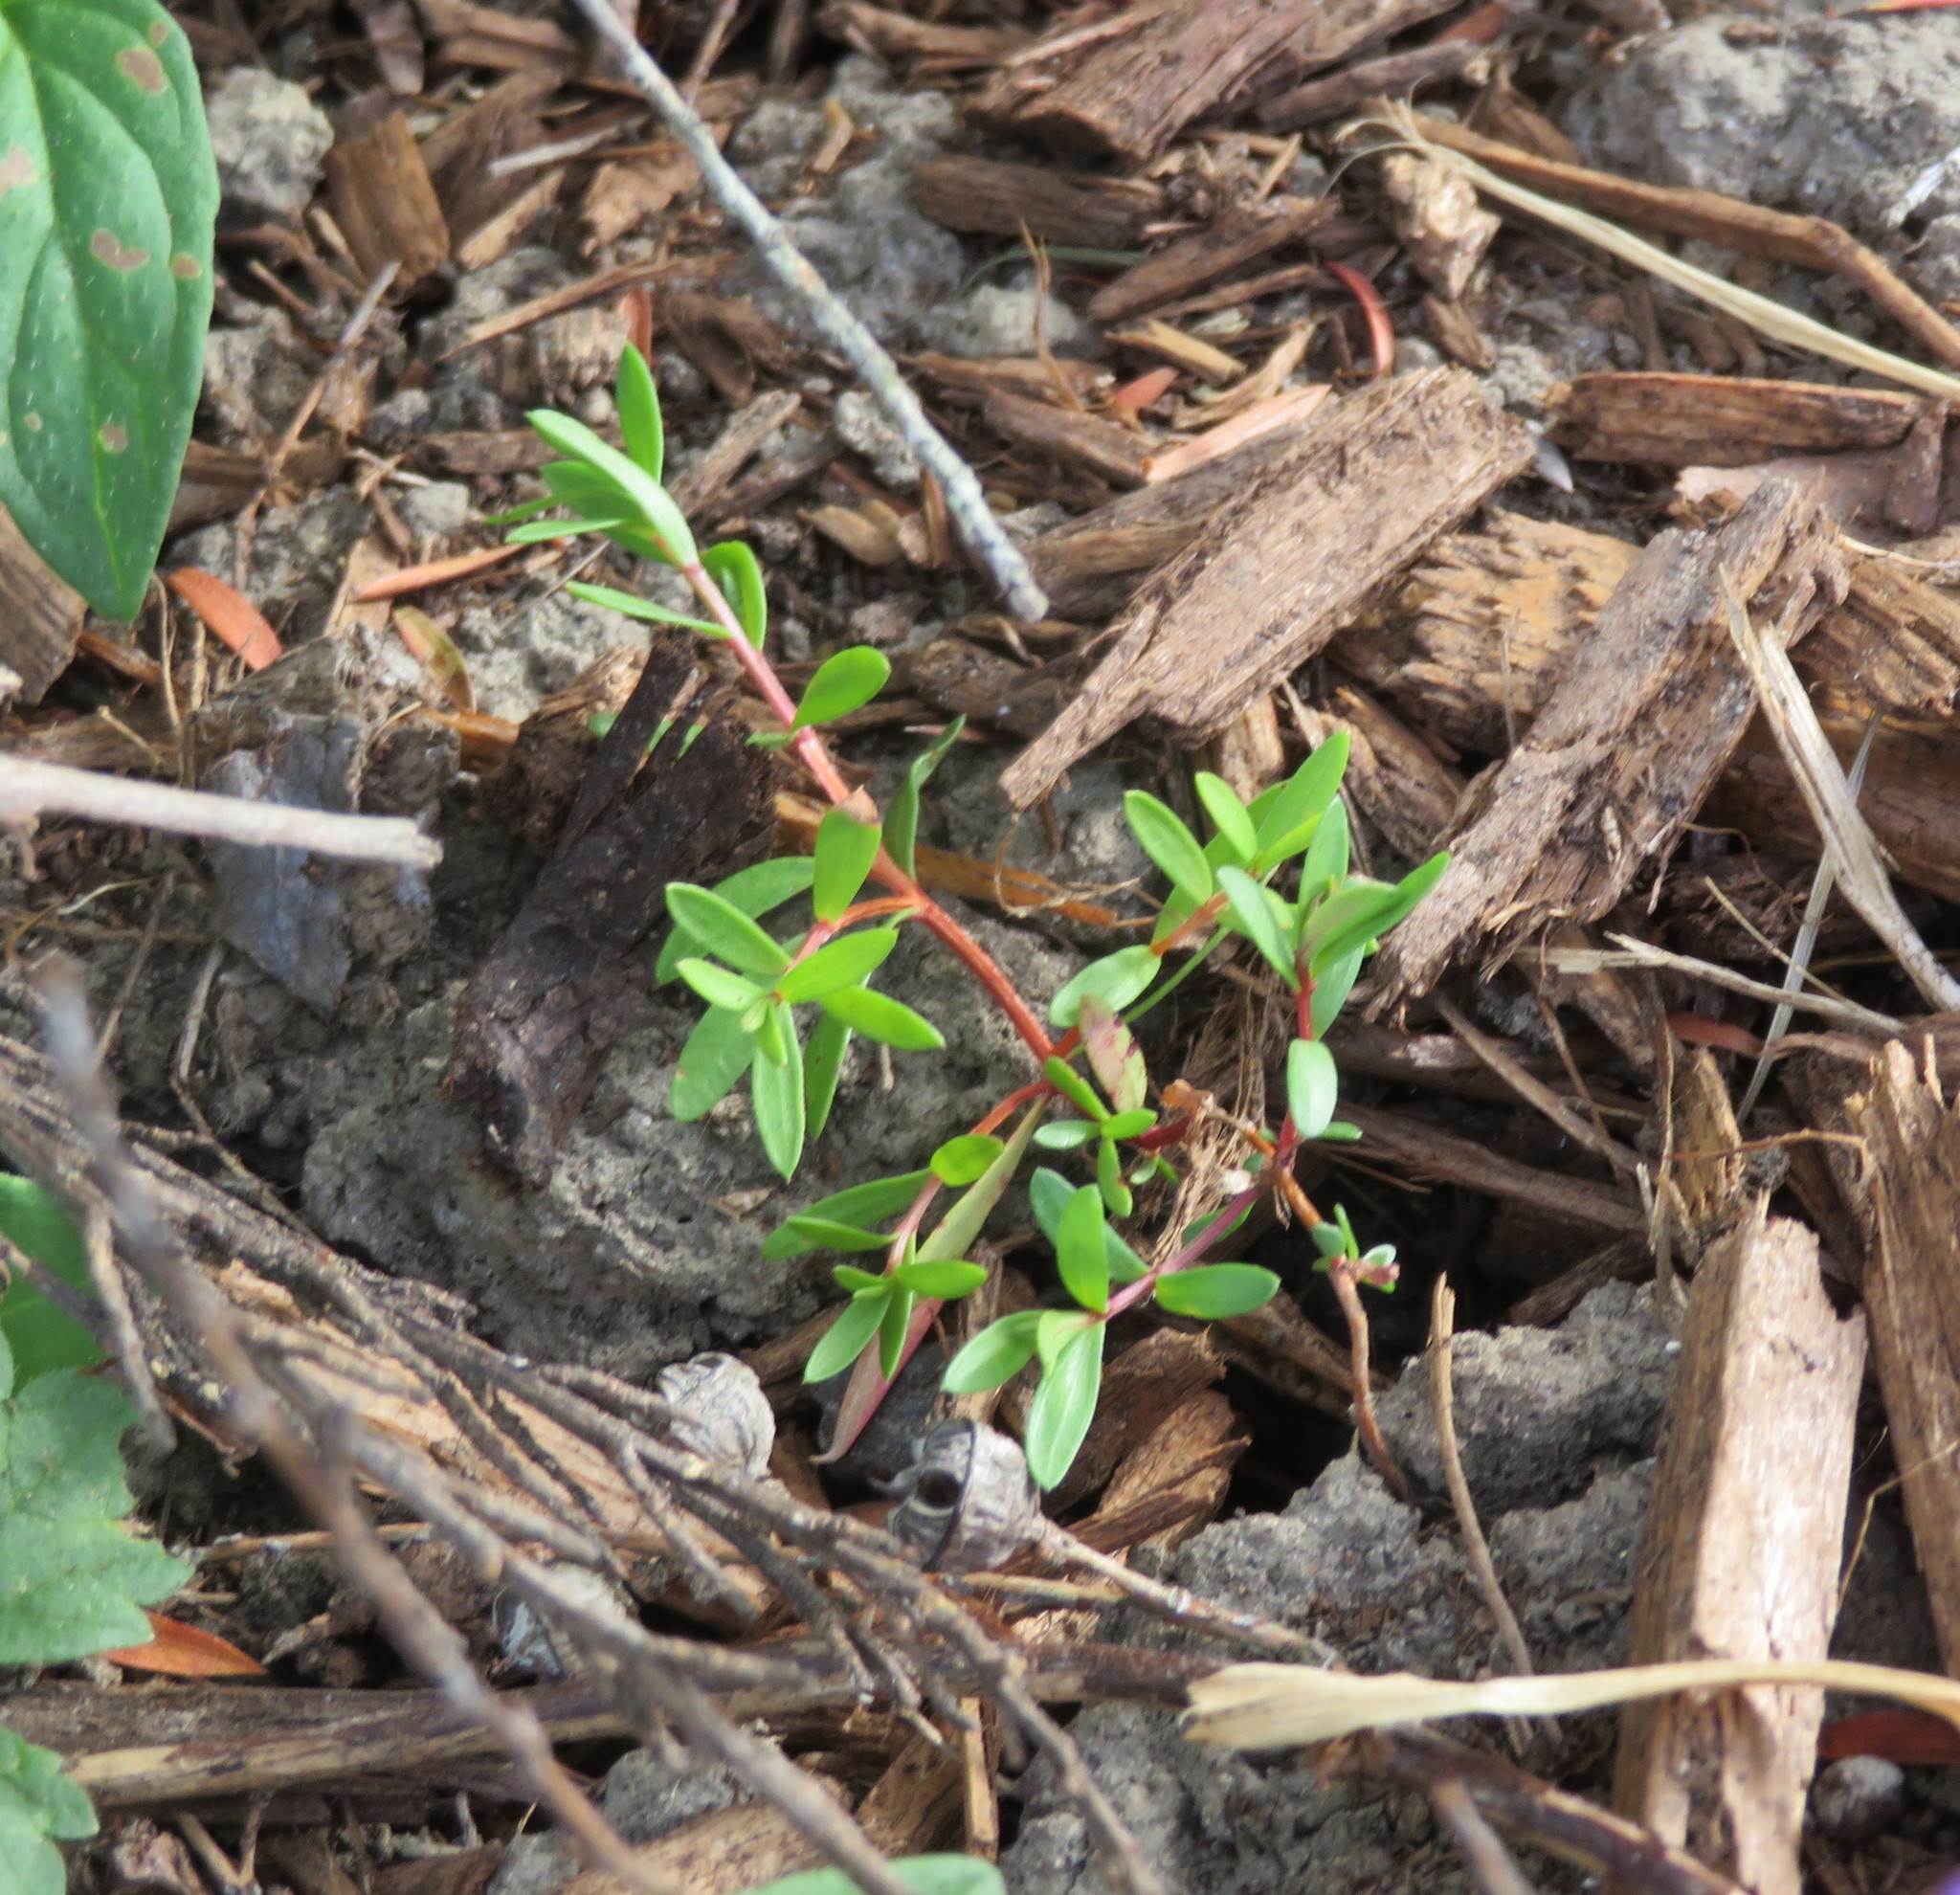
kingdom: Plantae
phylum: Tracheophyta
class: Magnoliopsida
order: Myrtales
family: Myrtaceae
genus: Leptospermum
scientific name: Leptospermum scoparium
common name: Broom tea-tree
